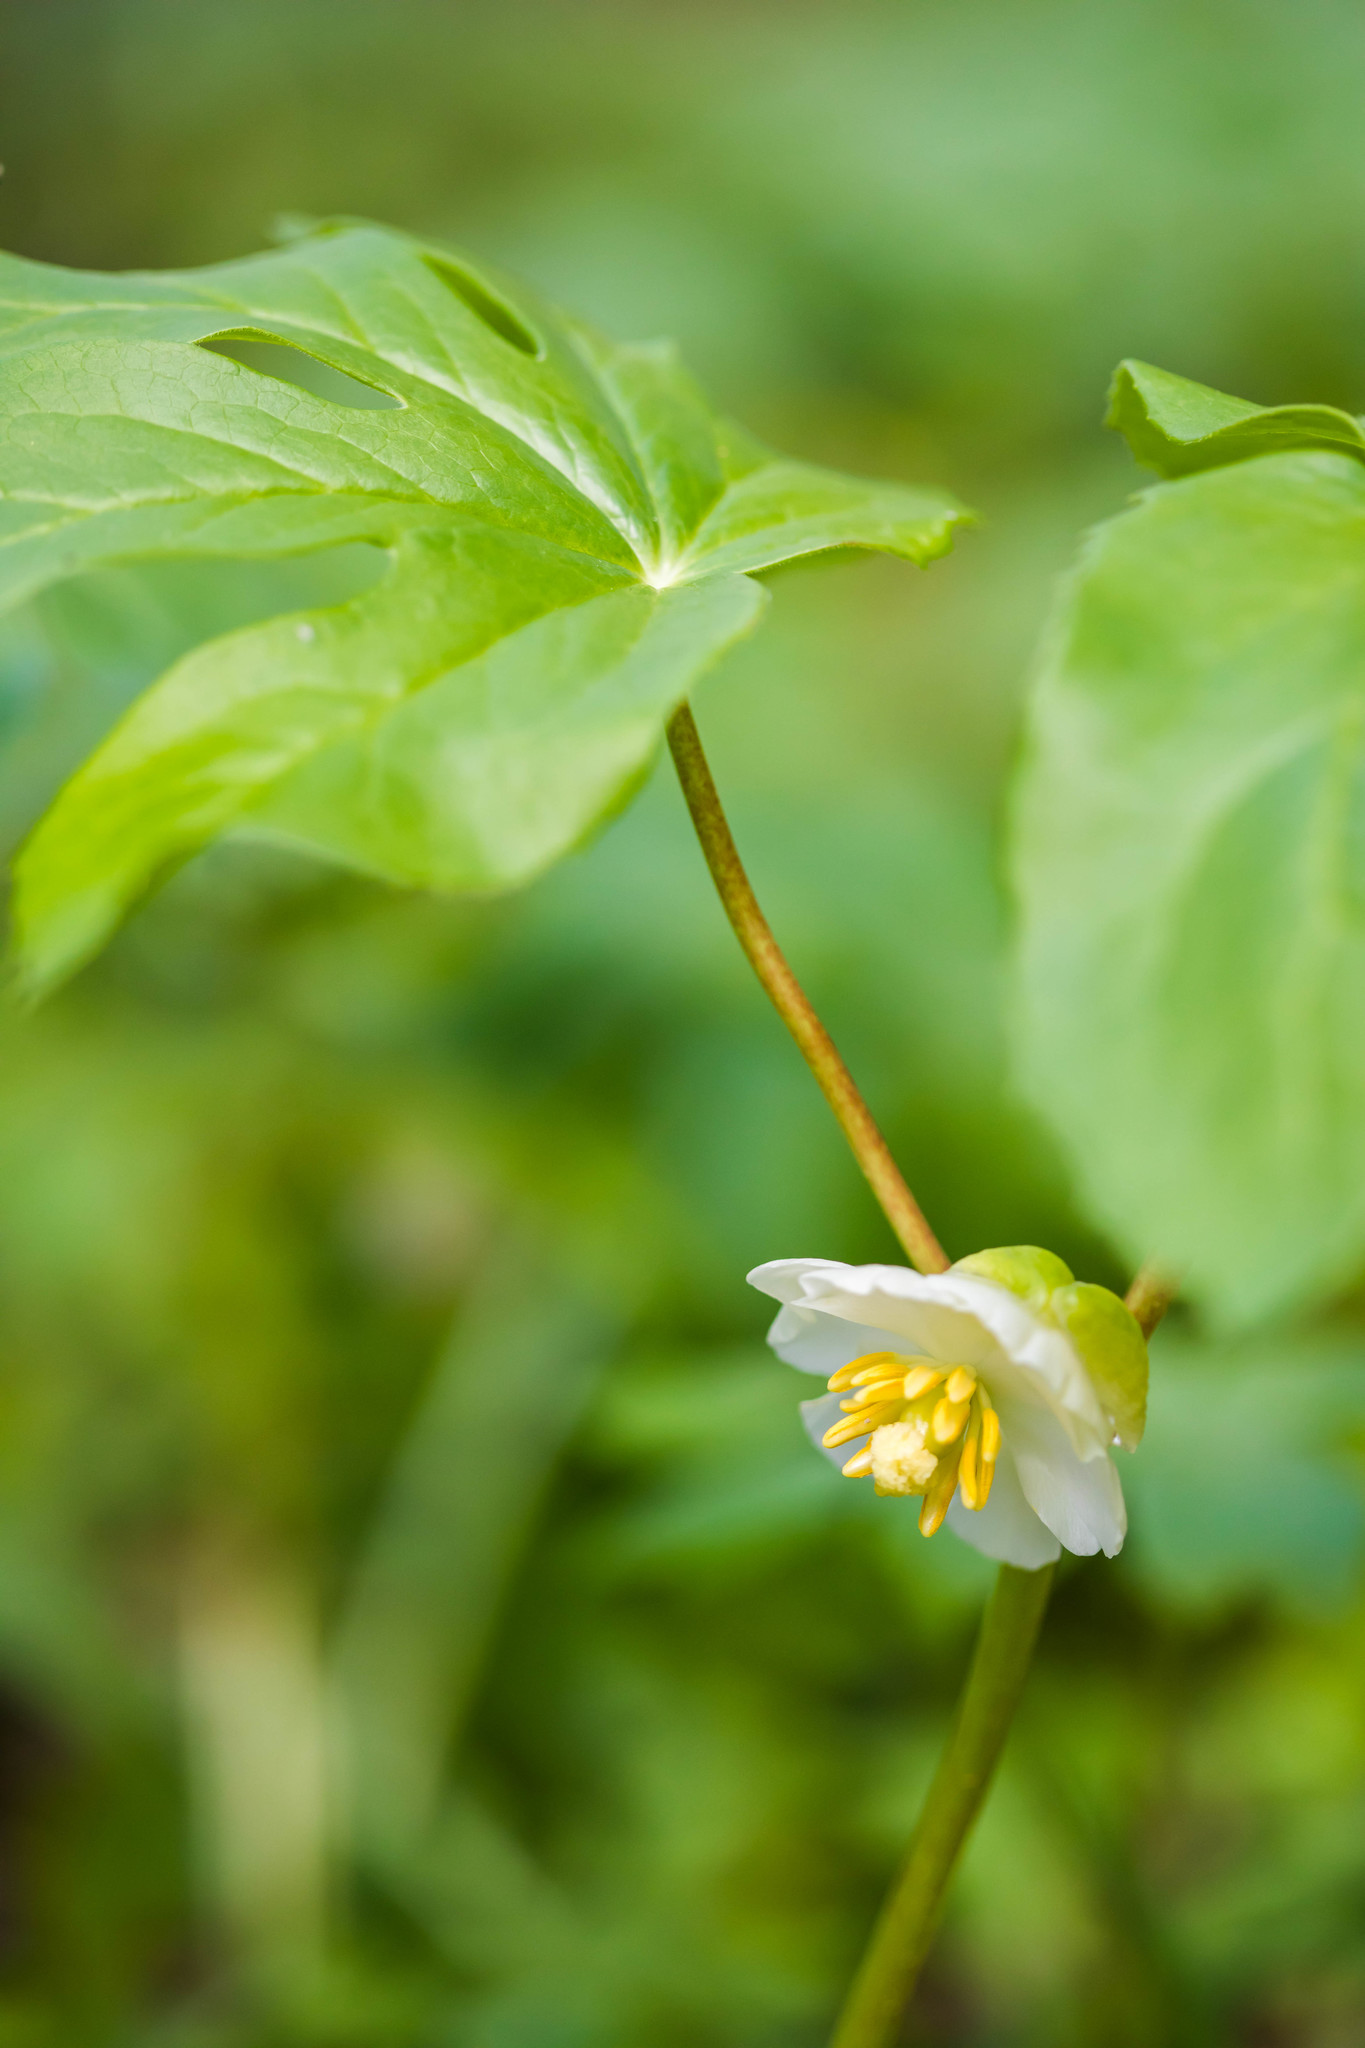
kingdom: Plantae
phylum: Tracheophyta
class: Magnoliopsida
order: Ranunculales
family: Berberidaceae
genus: Podophyllum
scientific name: Podophyllum peltatum
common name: Wild mandrake
